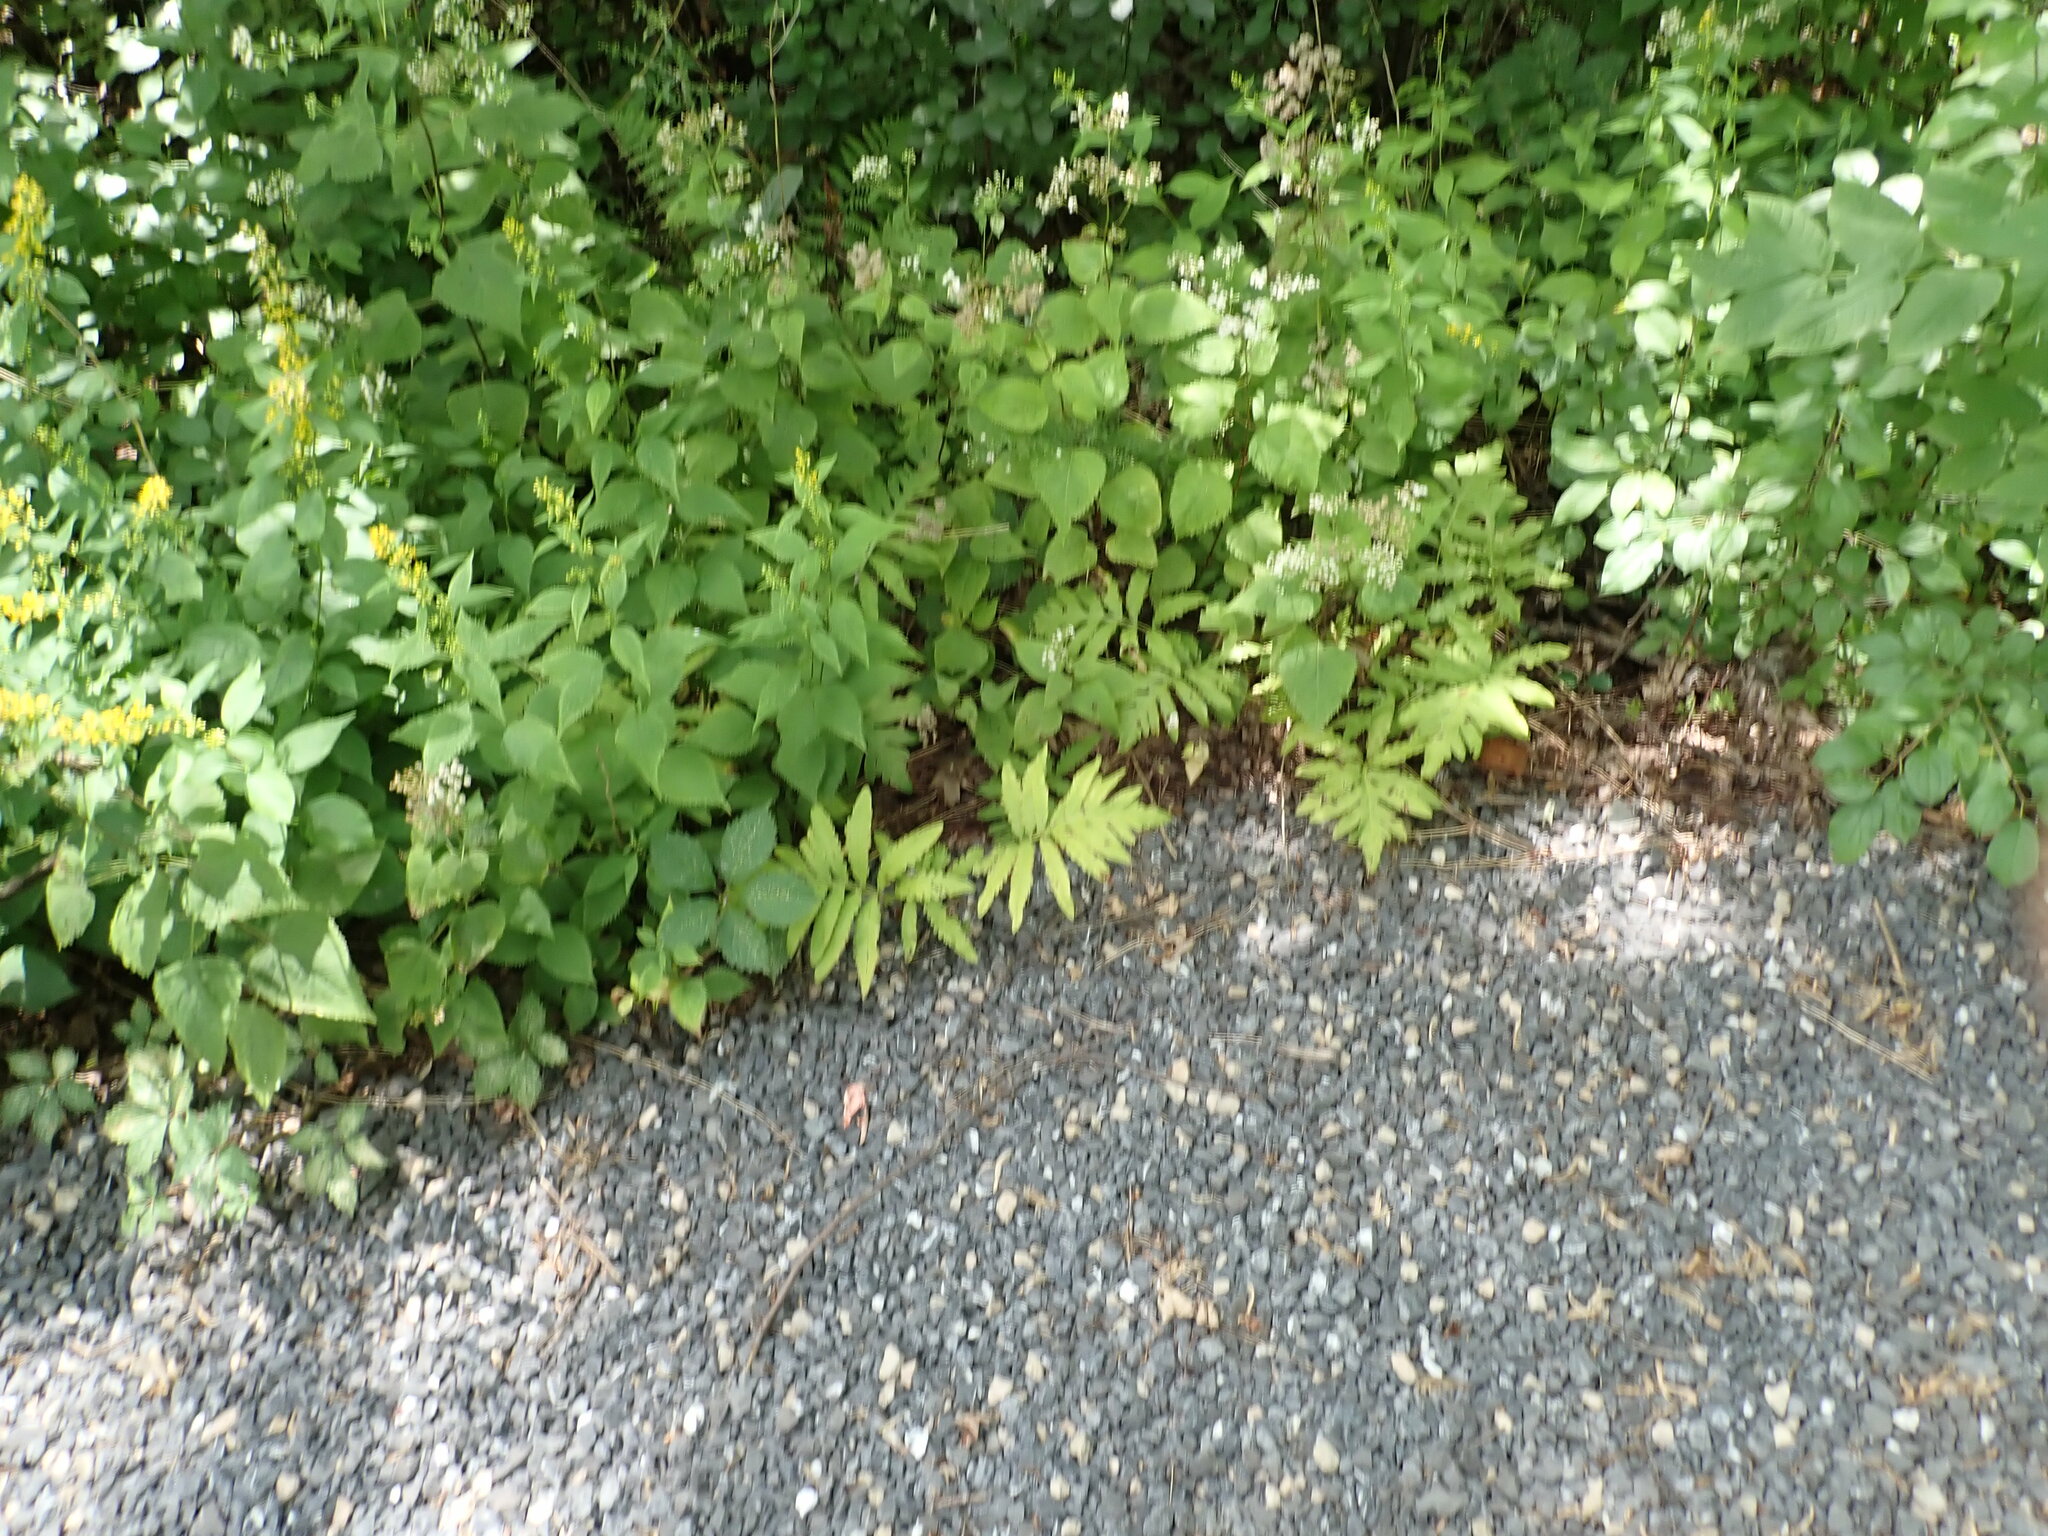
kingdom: Plantae
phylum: Tracheophyta
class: Polypodiopsida
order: Polypodiales
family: Onocleaceae
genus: Onoclea
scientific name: Onoclea sensibilis
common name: Sensitive fern
